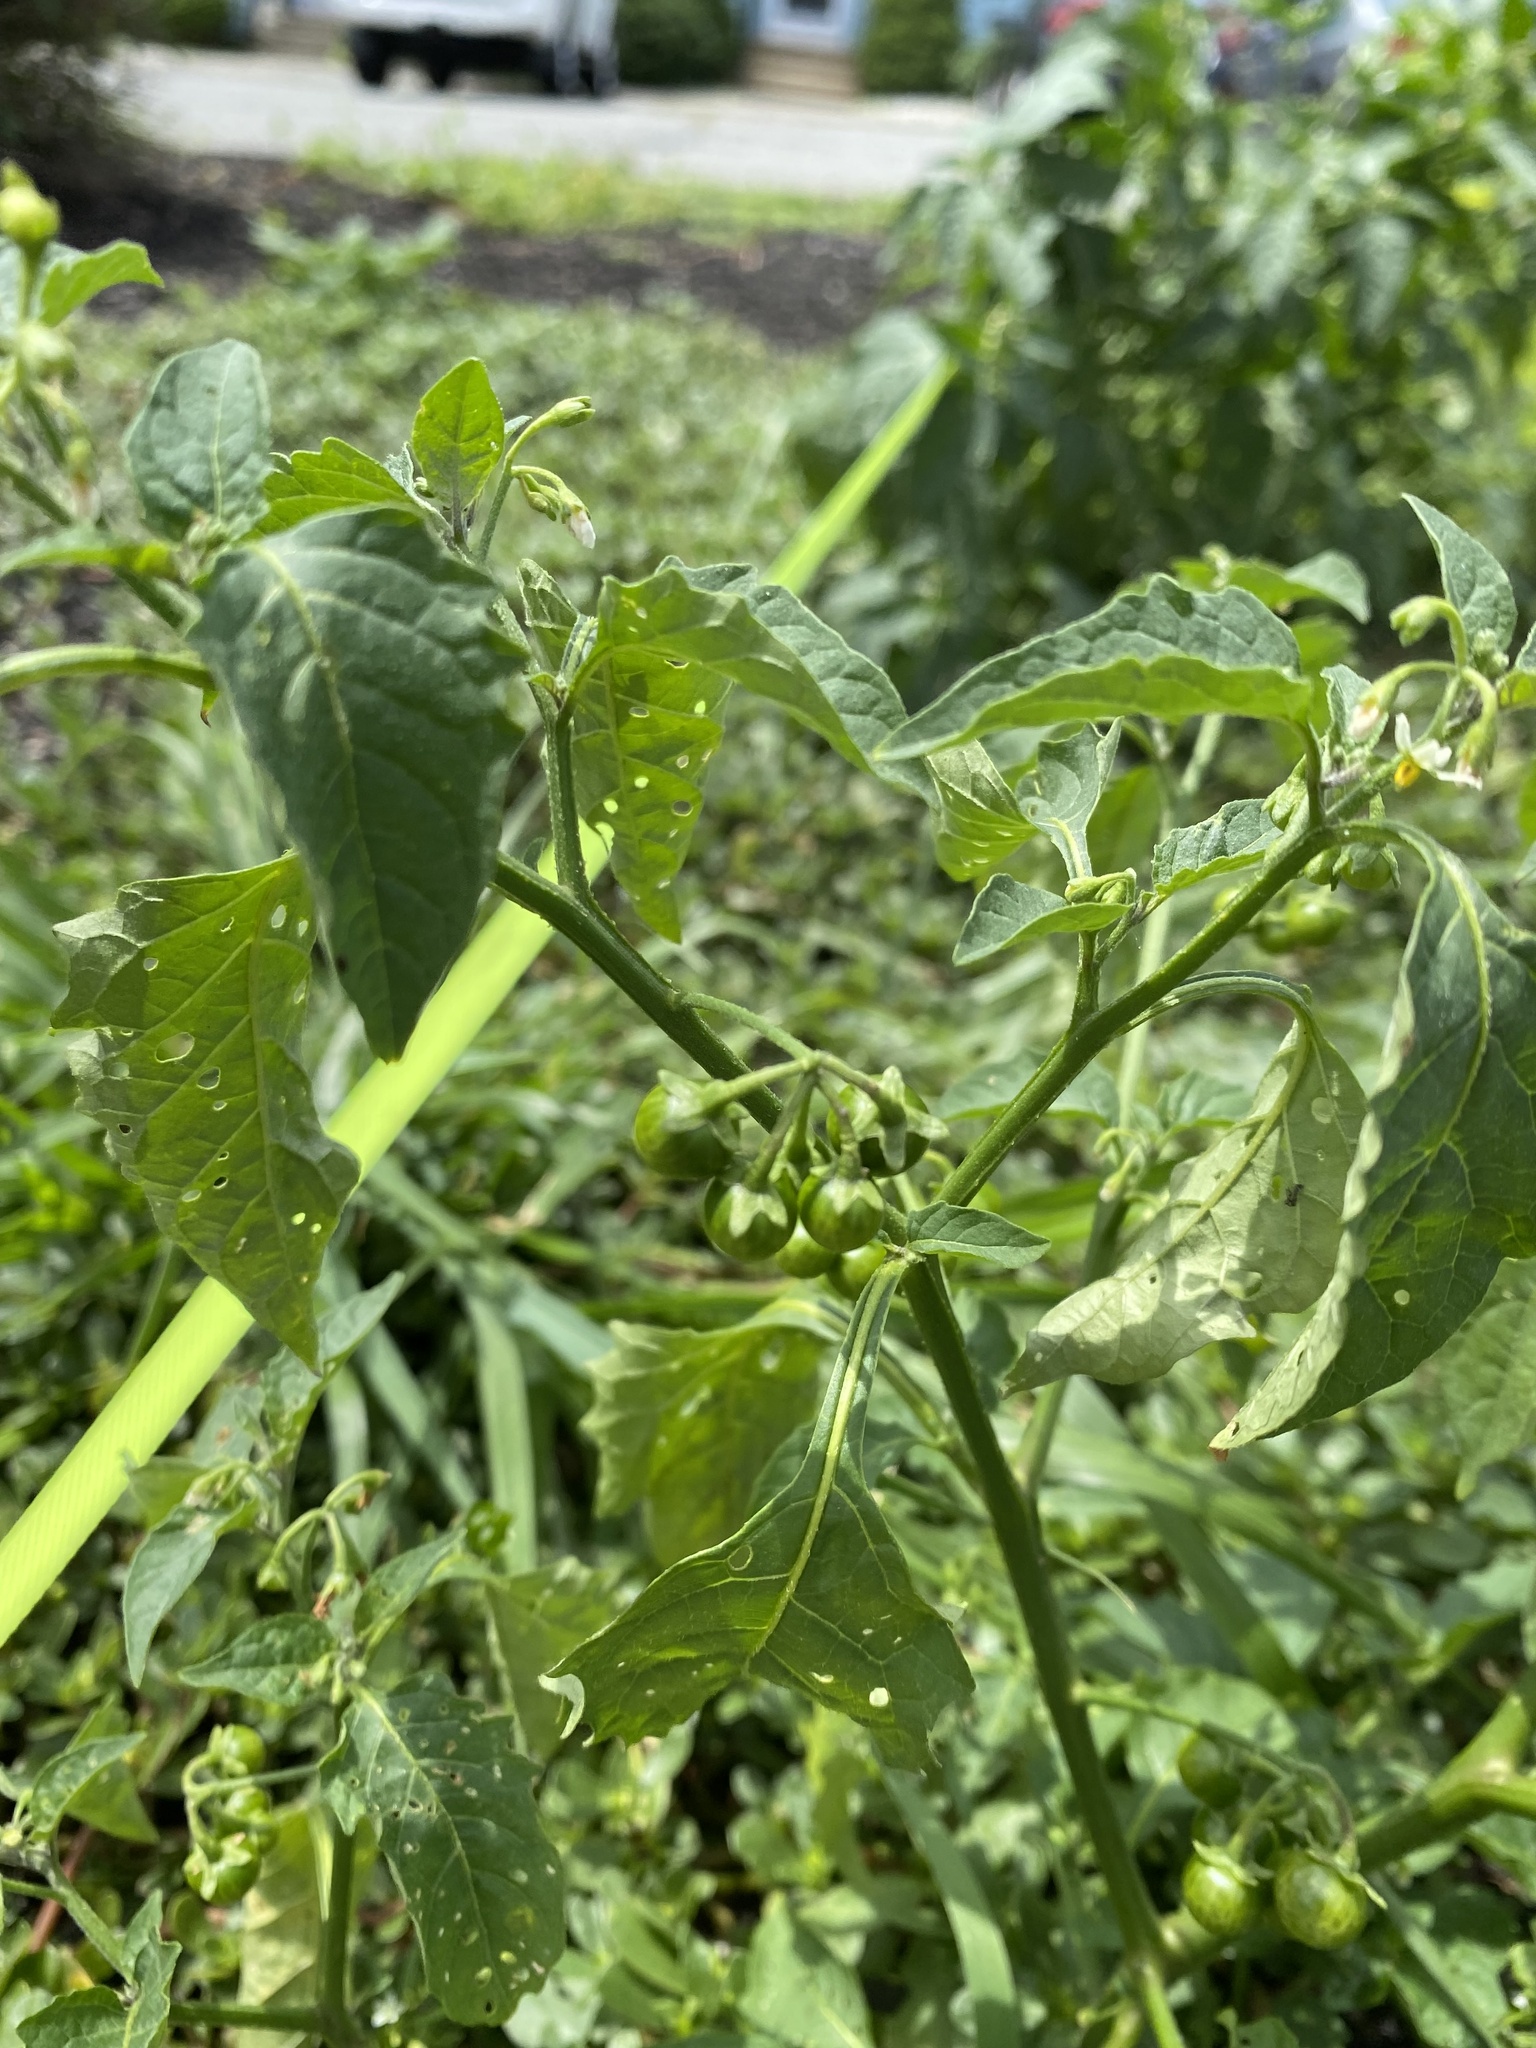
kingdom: Plantae
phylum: Tracheophyta
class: Magnoliopsida
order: Solanales
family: Solanaceae
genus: Solanum
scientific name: Solanum emulans
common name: Eastern black nightshade
